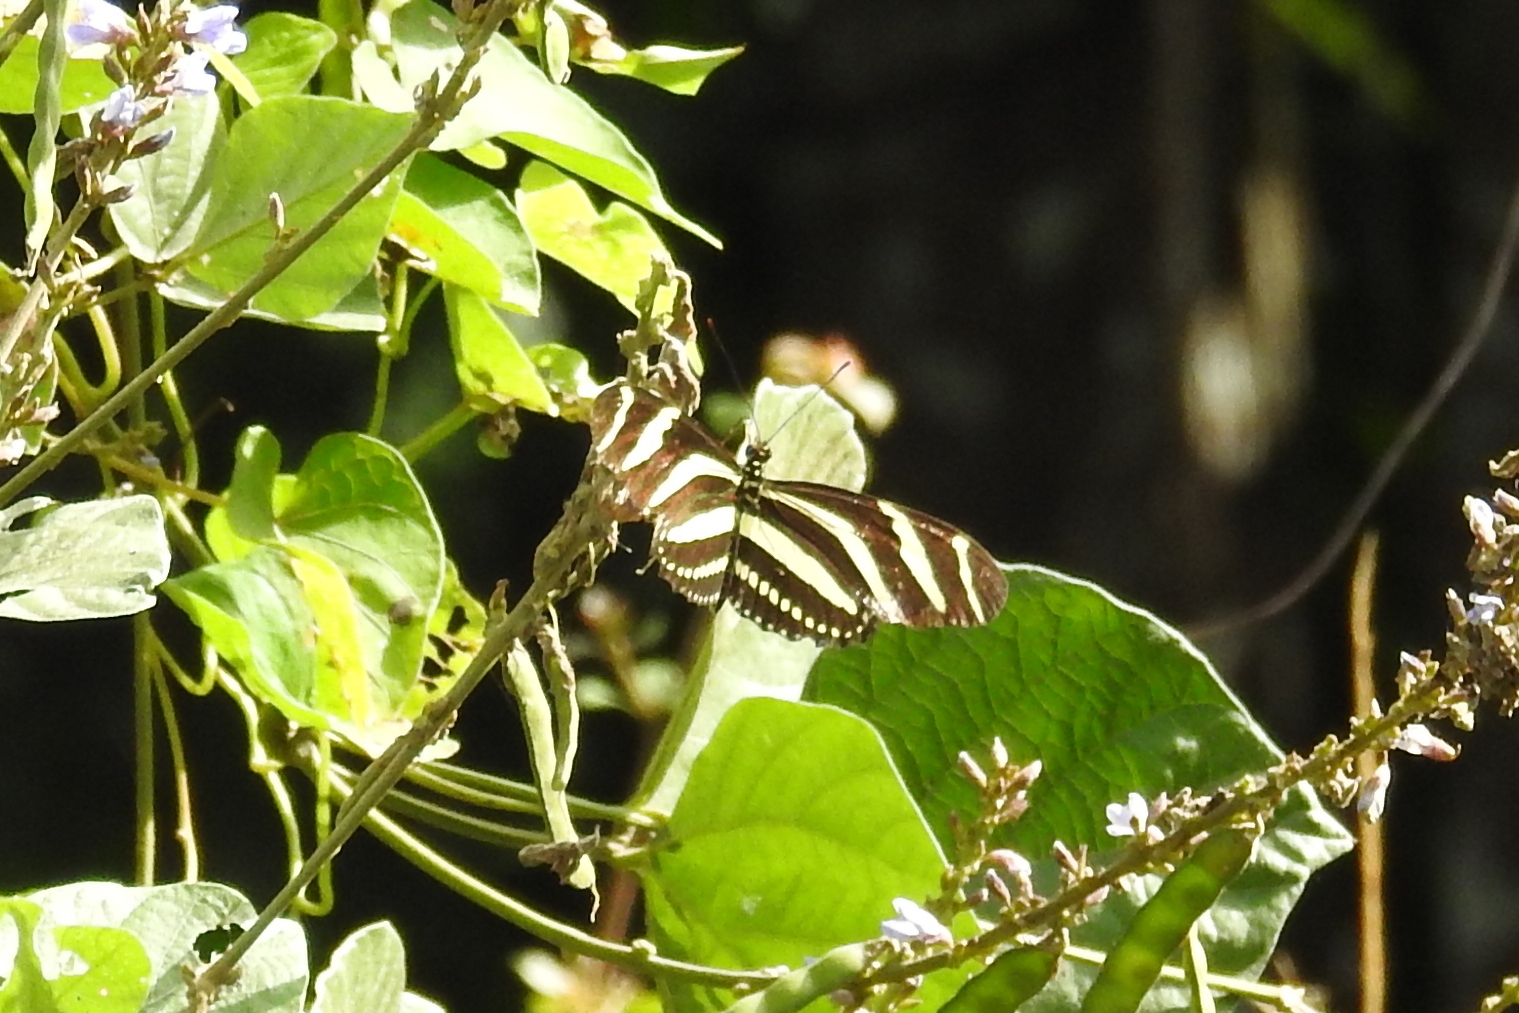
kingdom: Animalia
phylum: Arthropoda
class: Insecta
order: Lepidoptera
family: Nymphalidae
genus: Heliconius
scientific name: Heliconius charithonia
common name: Zebra long wing
